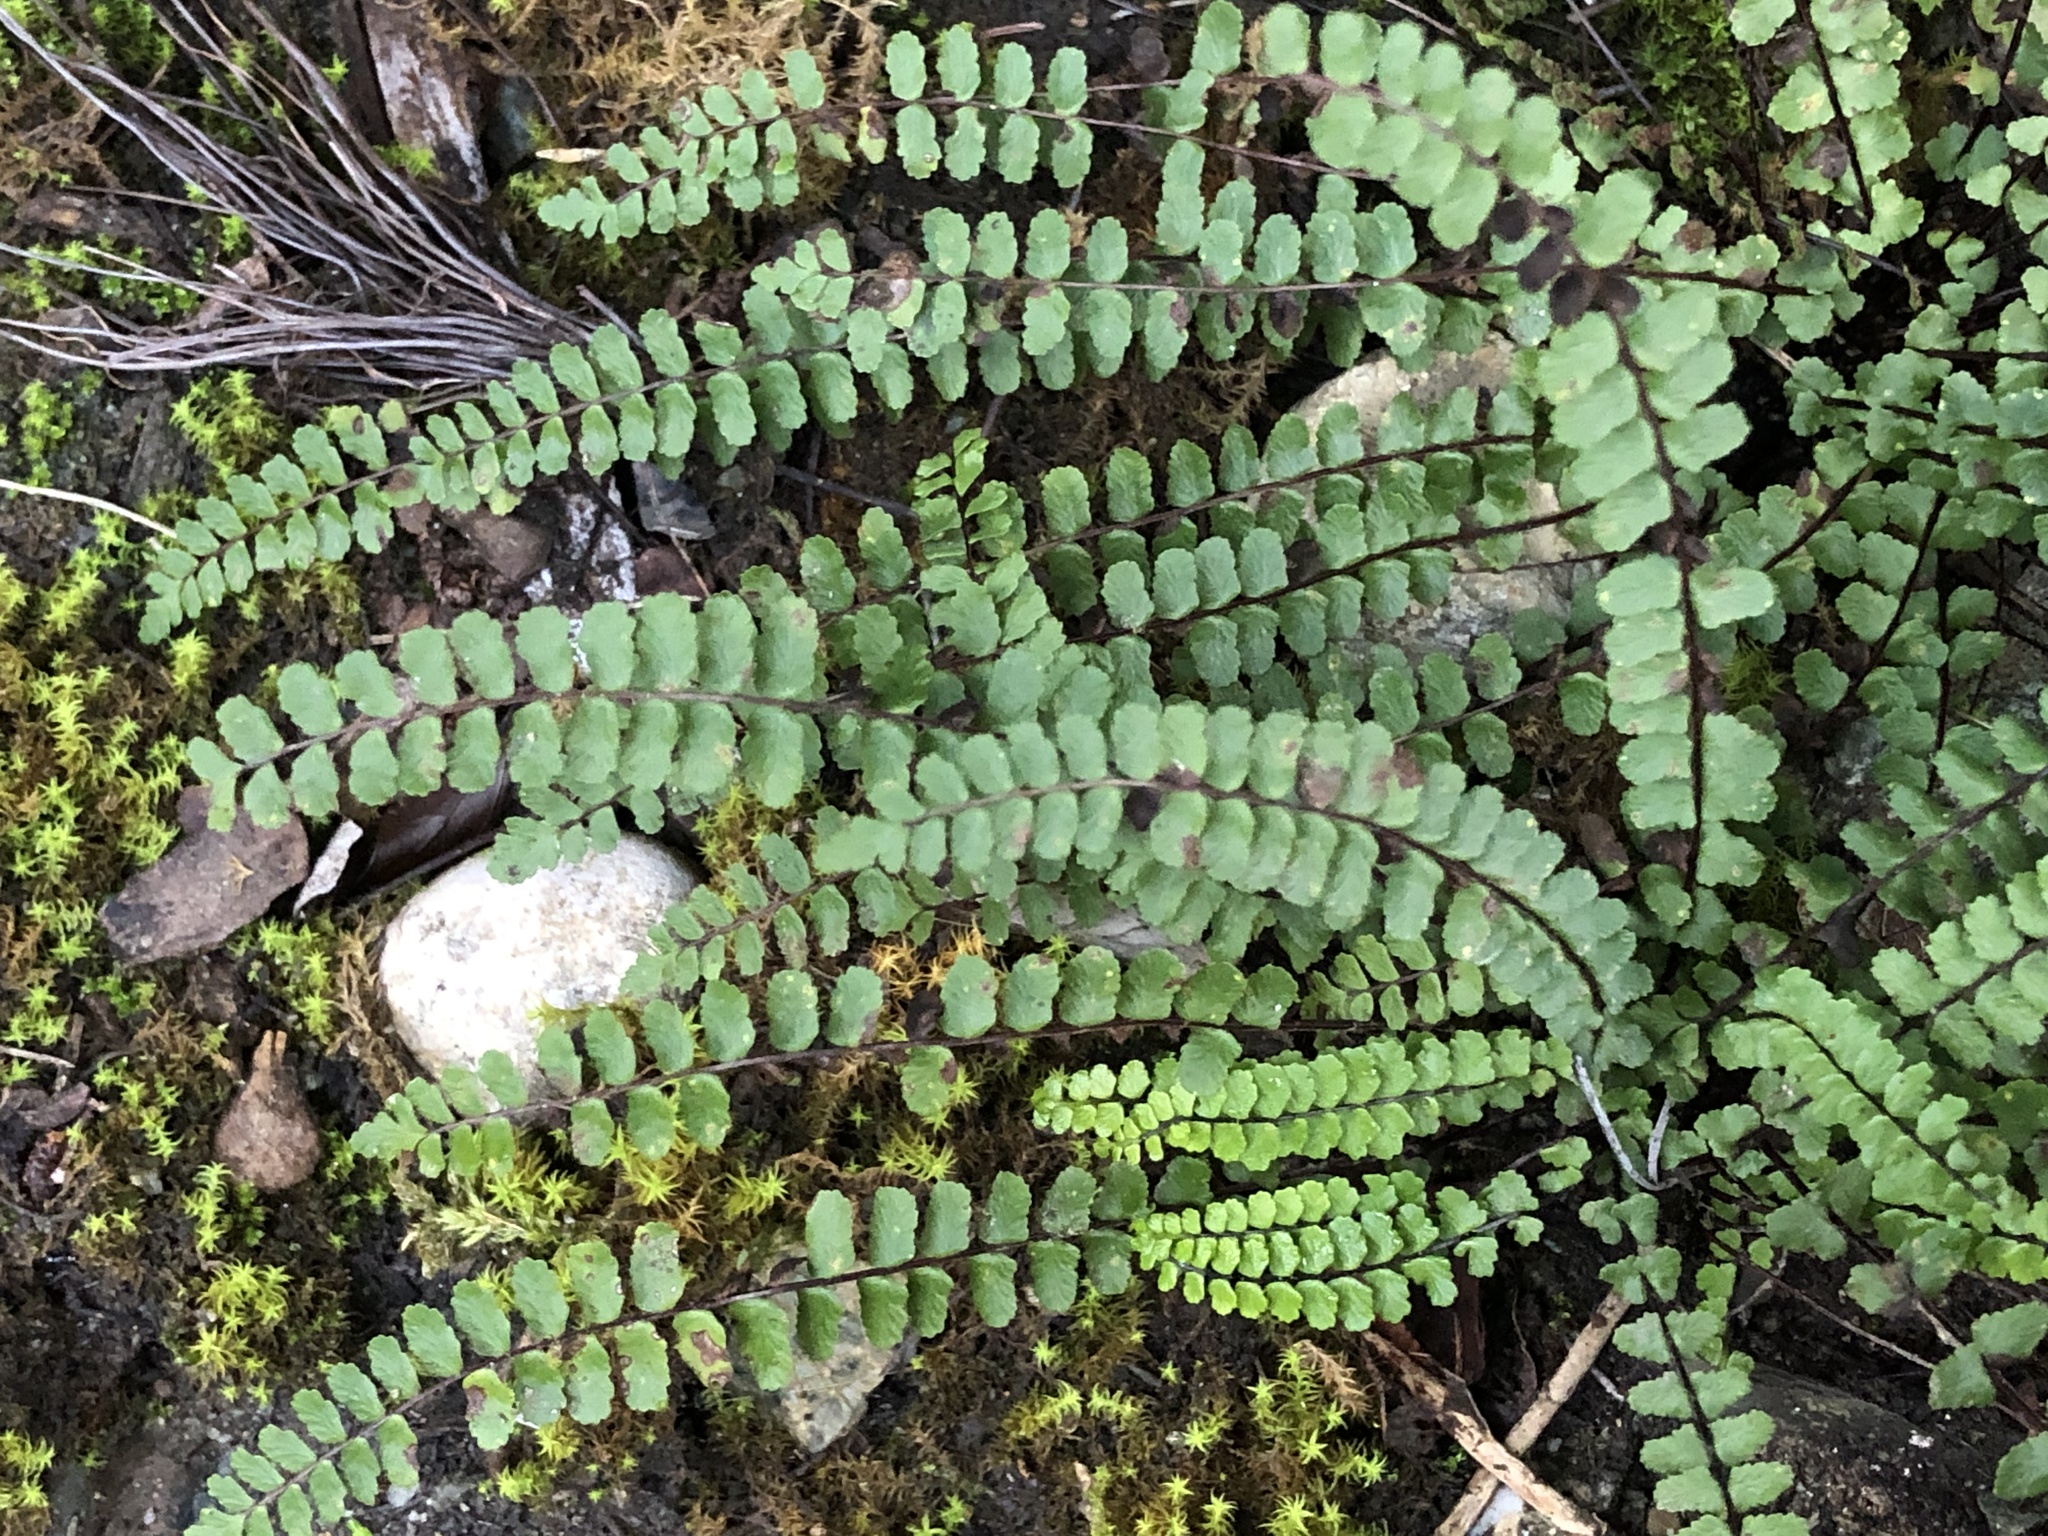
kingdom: Plantae
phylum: Tracheophyta
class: Polypodiopsida
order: Polypodiales
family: Aspleniaceae
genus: Asplenium
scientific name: Asplenium trichomanes
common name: Maidenhair spleenwort
